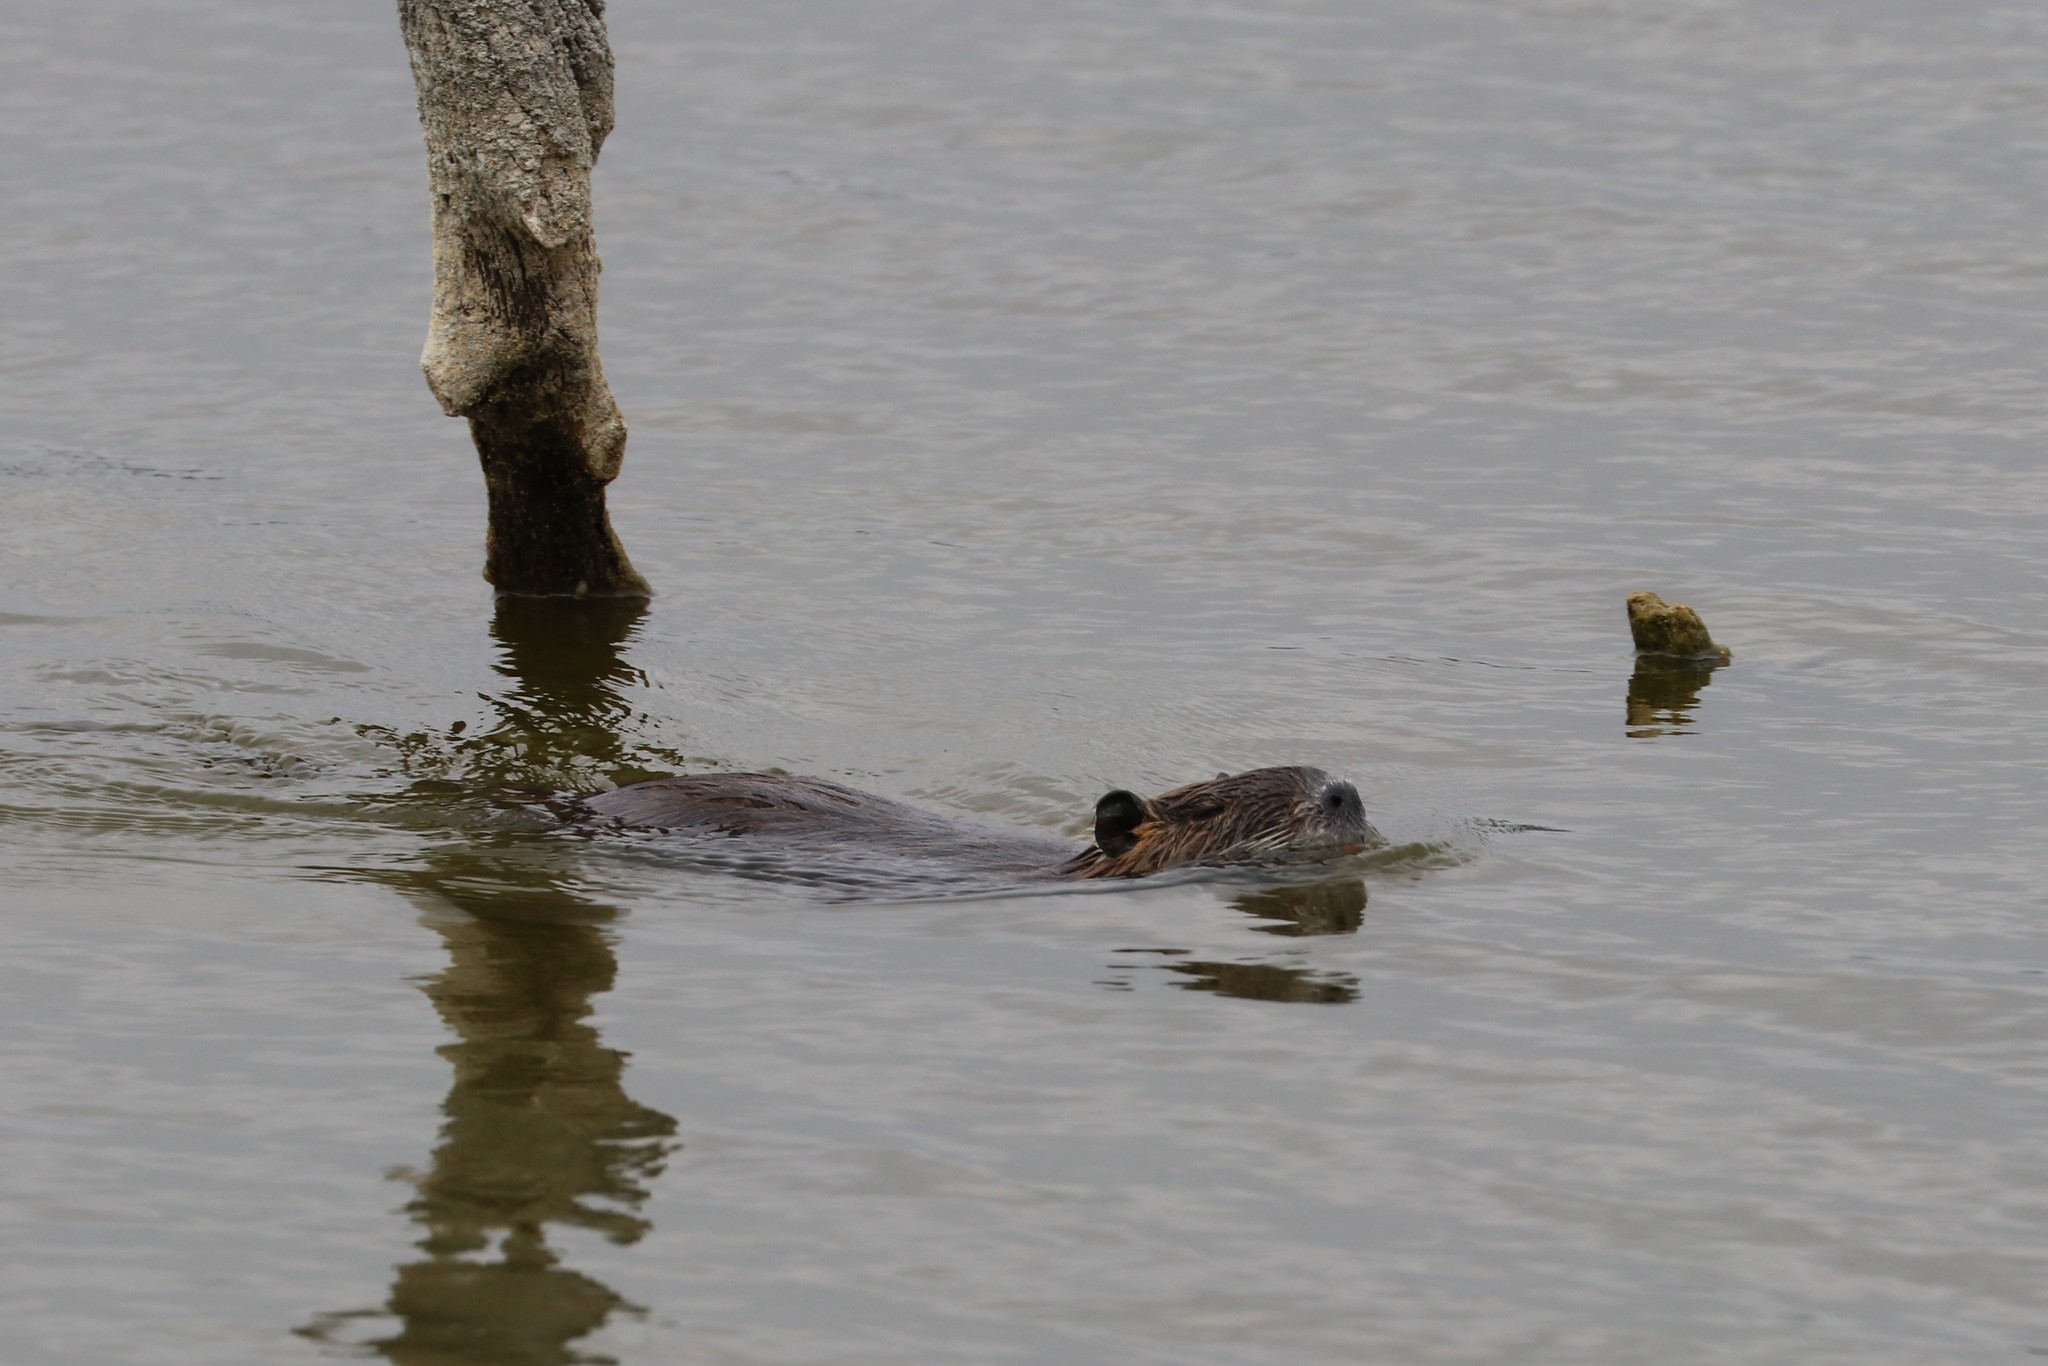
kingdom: Animalia
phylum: Chordata
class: Mammalia
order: Rodentia
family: Myocastoridae
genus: Myocastor
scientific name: Myocastor coypus
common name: Coypu
